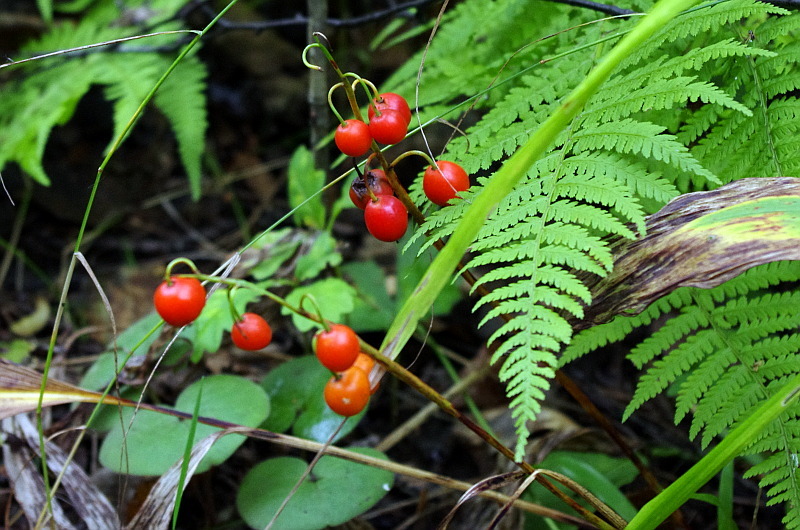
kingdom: Plantae
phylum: Tracheophyta
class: Liliopsida
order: Asparagales
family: Asparagaceae
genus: Convallaria
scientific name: Convallaria majalis
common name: Lily-of-the-valley
